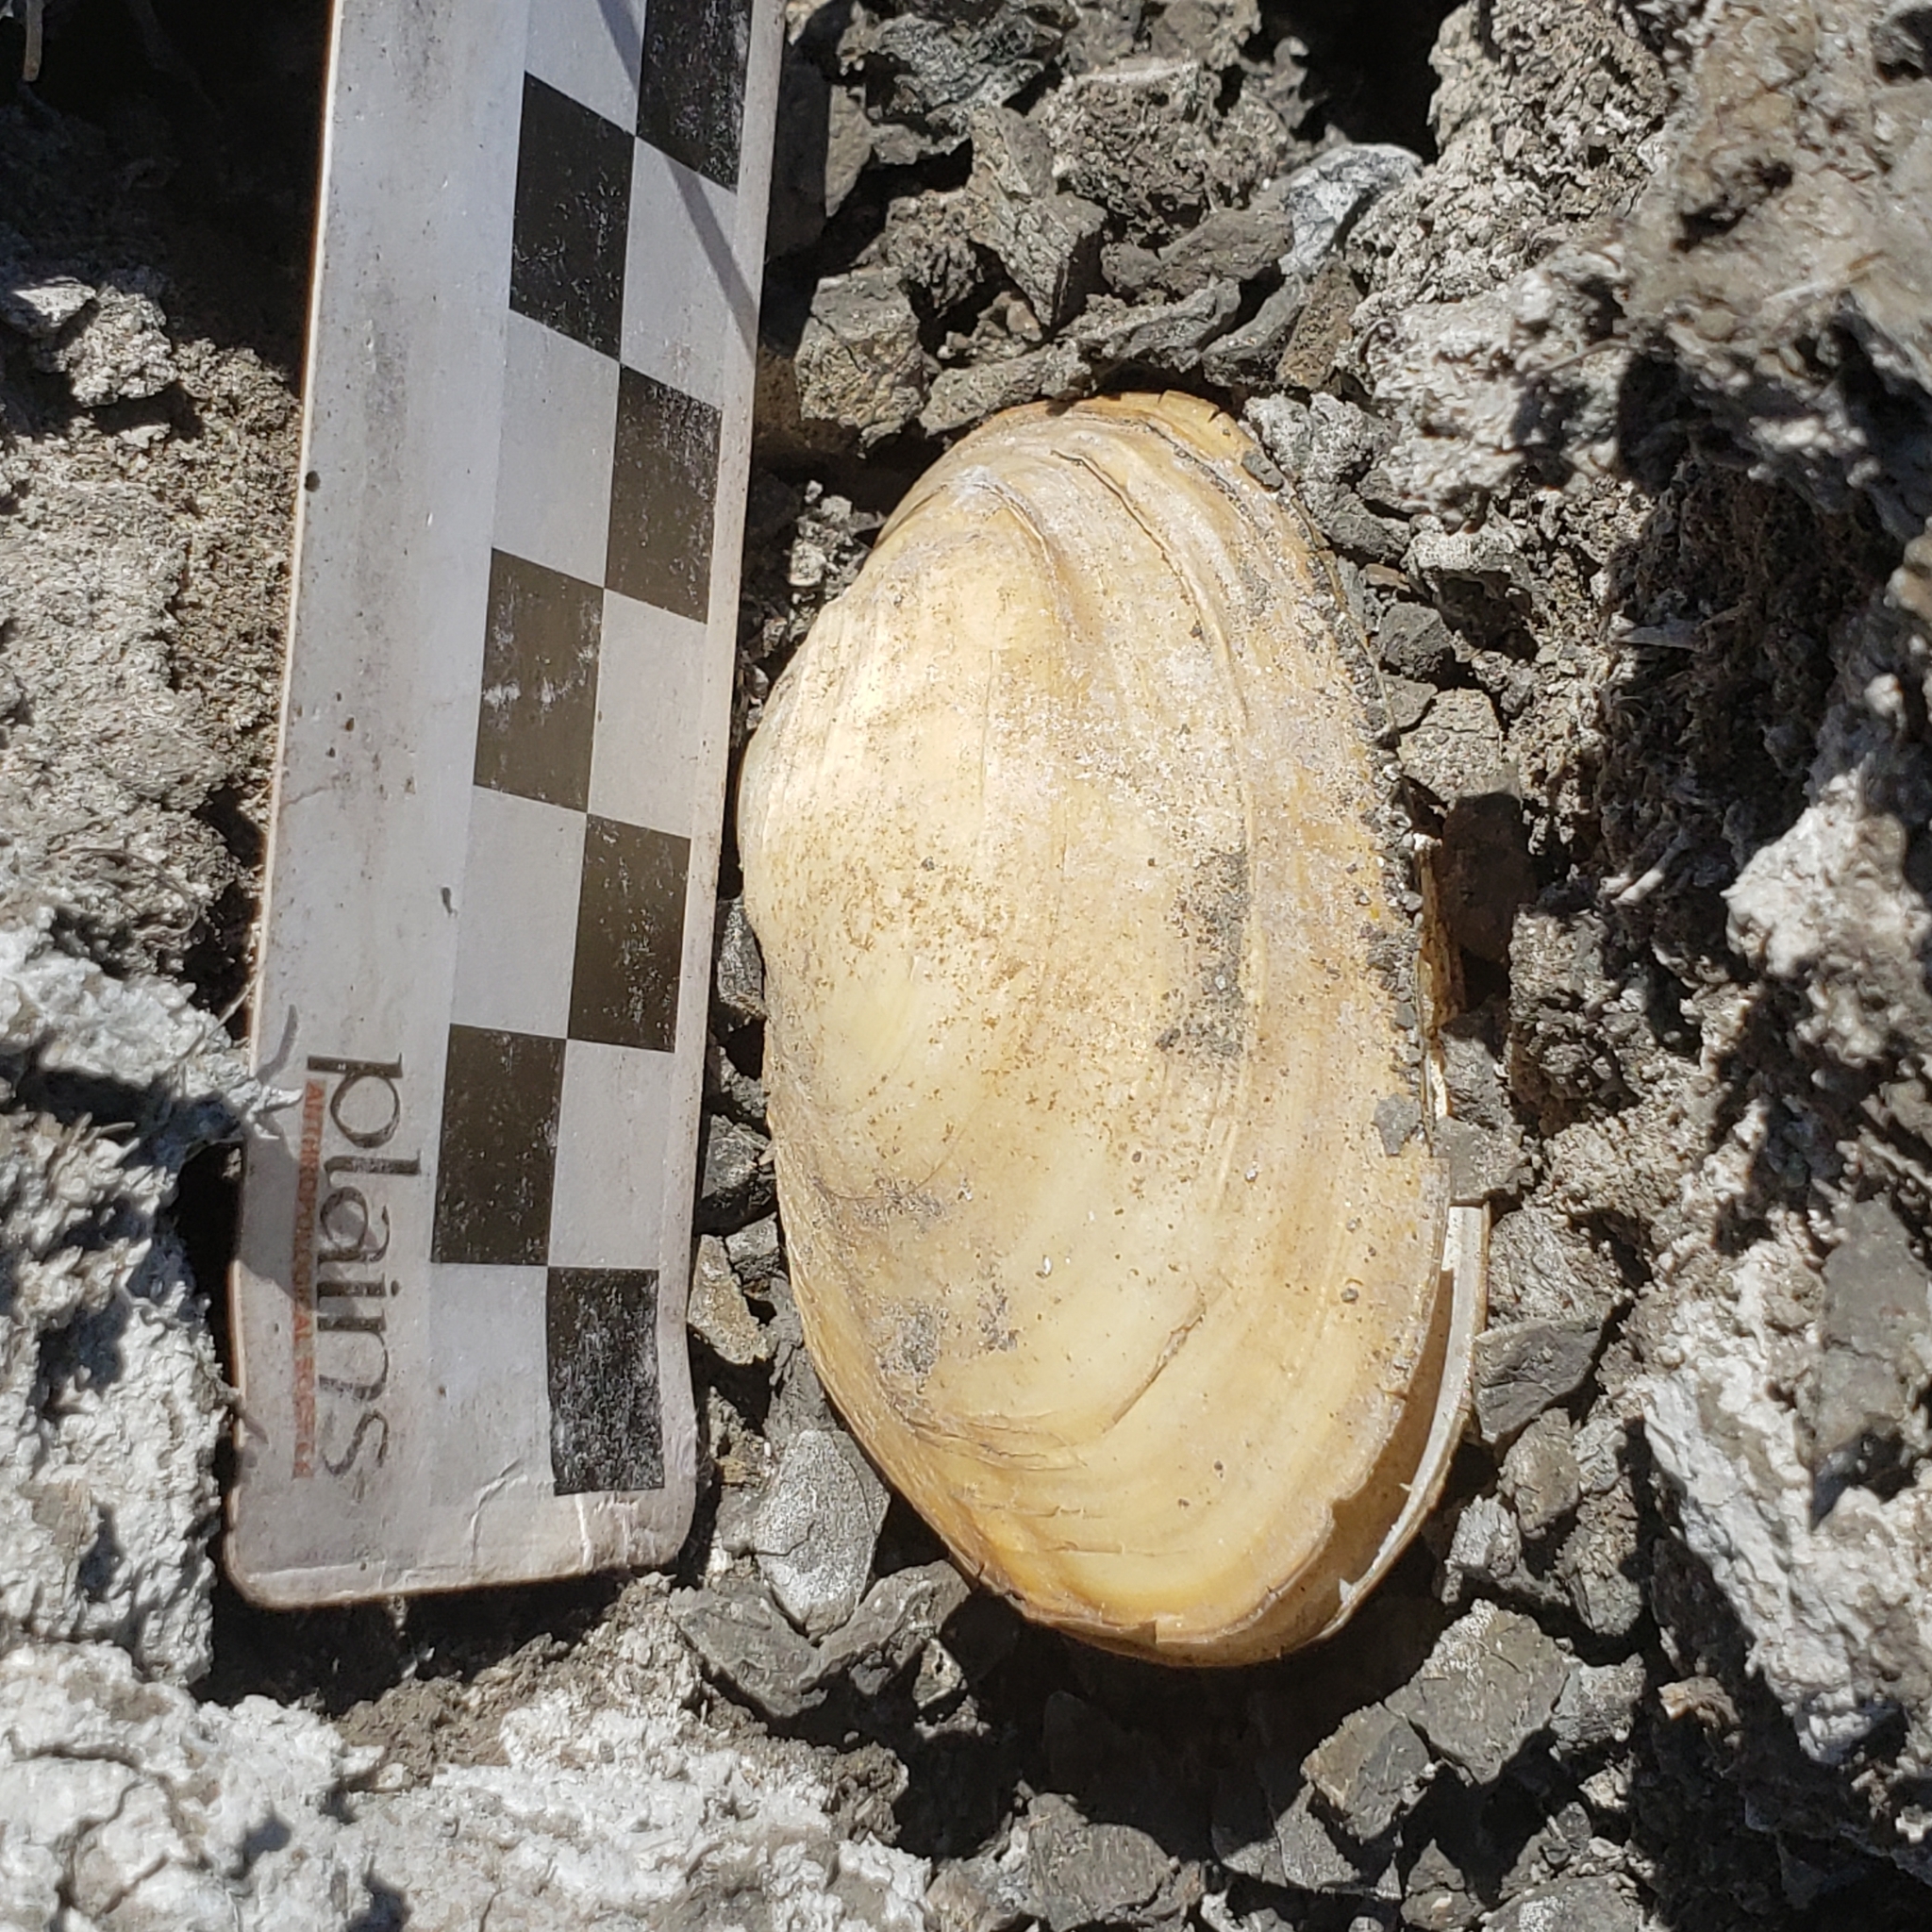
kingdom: Animalia
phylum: Mollusca
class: Bivalvia
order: Unionida
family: Unionidae
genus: Uniomerus
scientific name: Uniomerus tetralasmus
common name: Pondhorn
